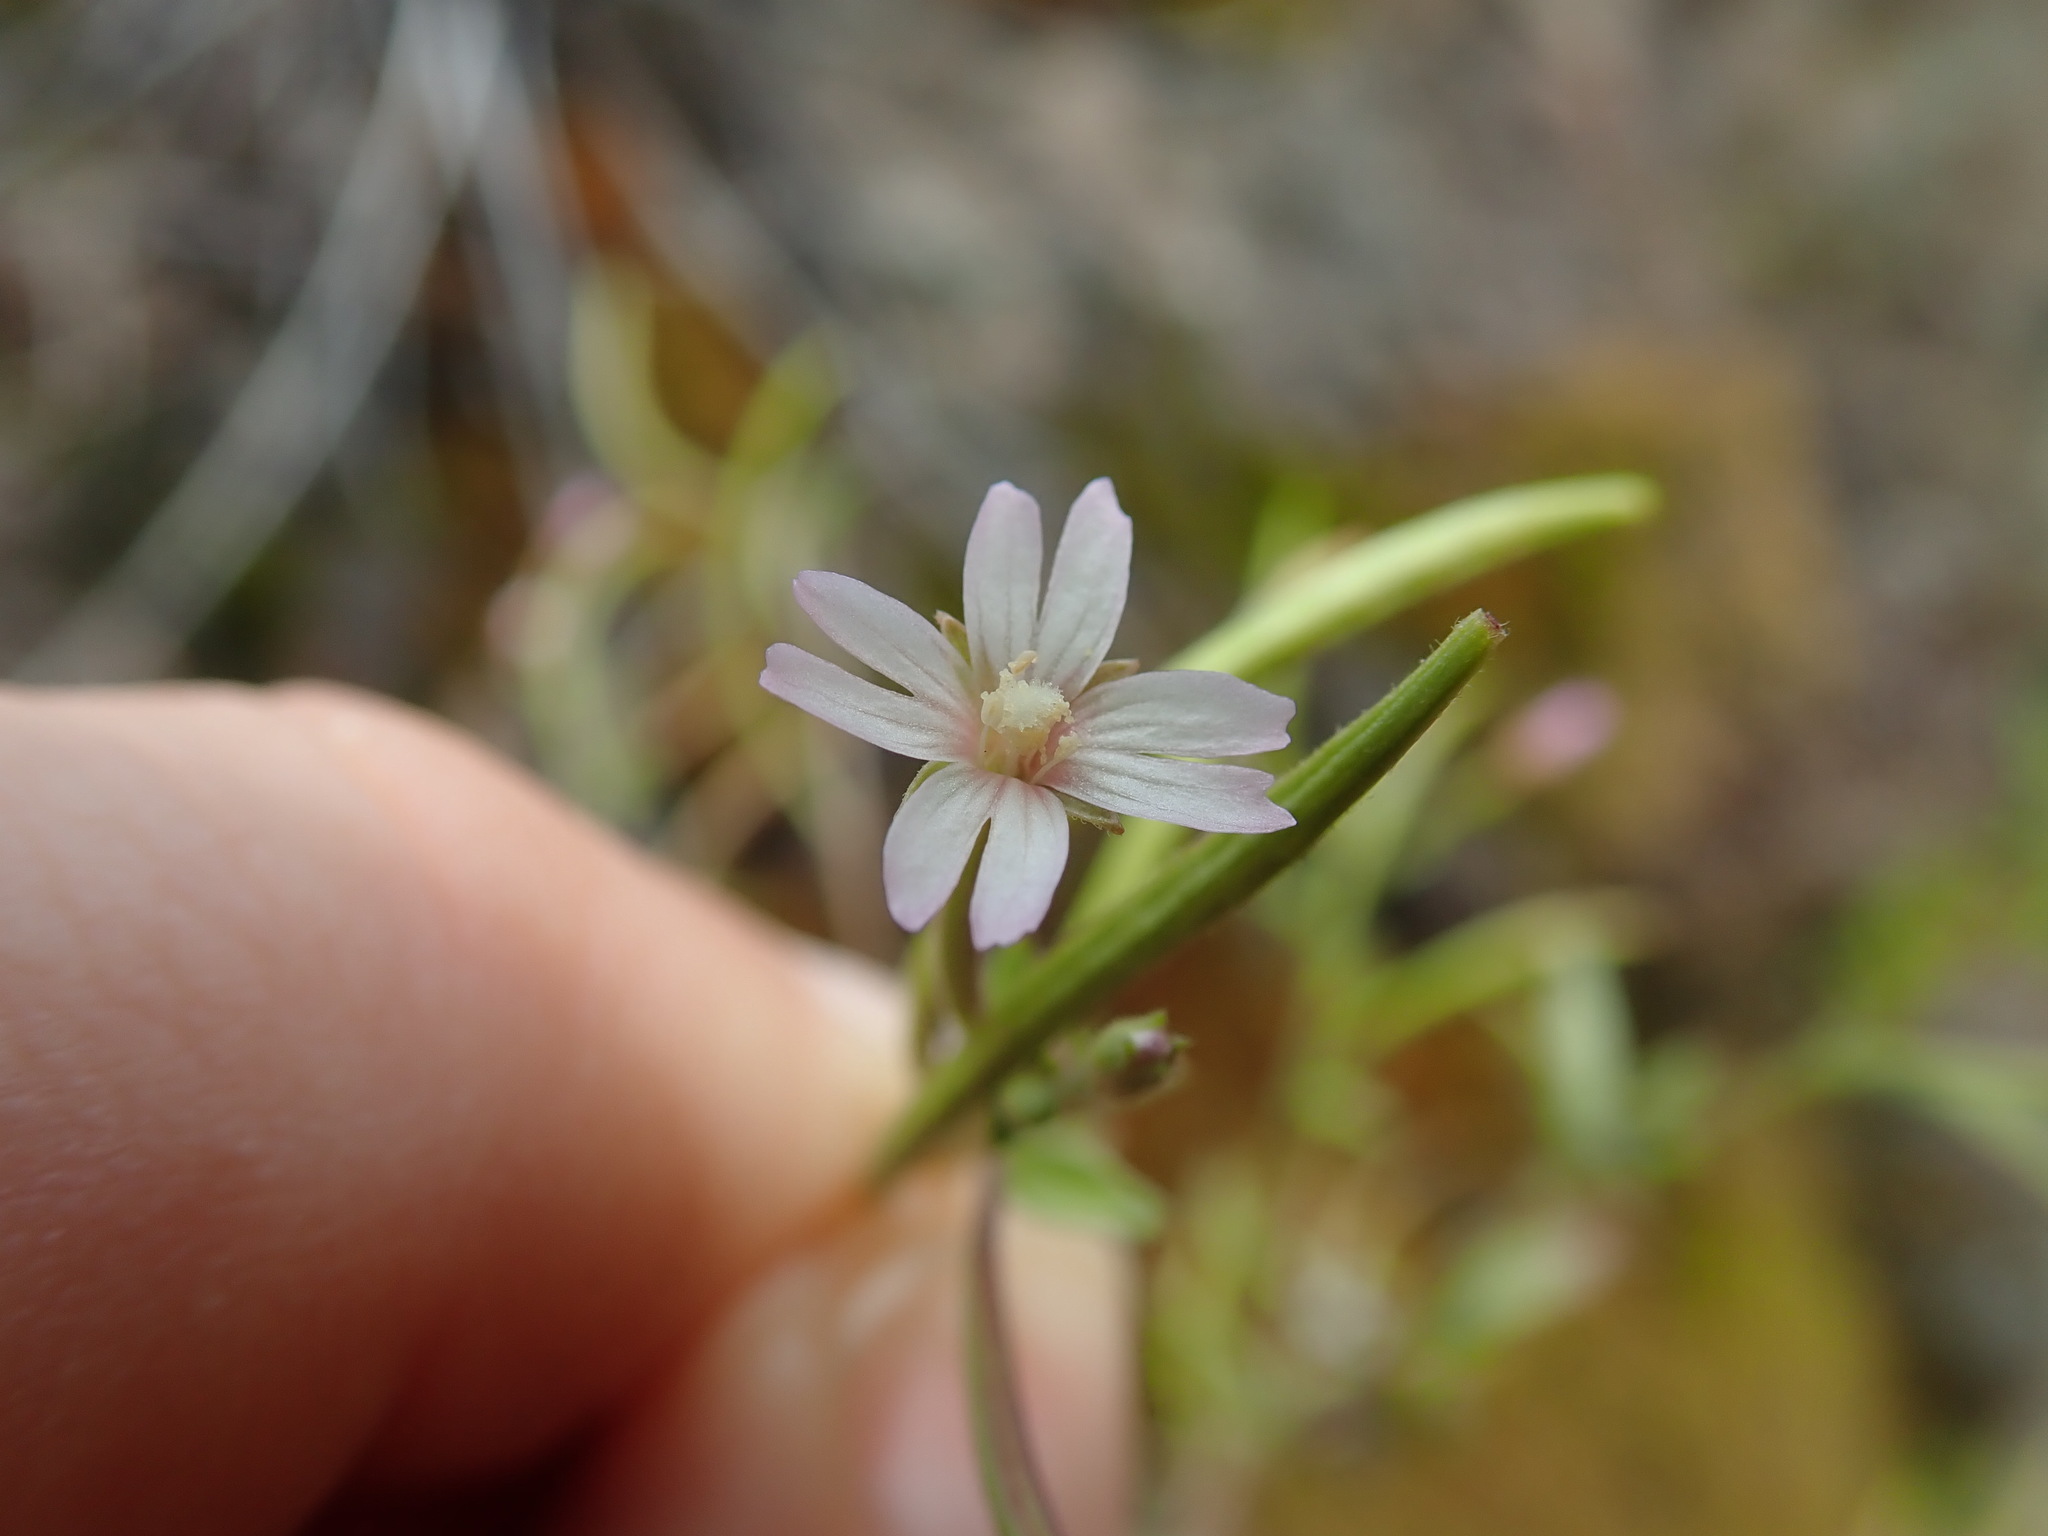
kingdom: Plantae
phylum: Tracheophyta
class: Magnoliopsida
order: Myrtales
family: Onagraceae
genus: Epilobium
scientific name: Epilobium minutum
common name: Chaparral willowherb
